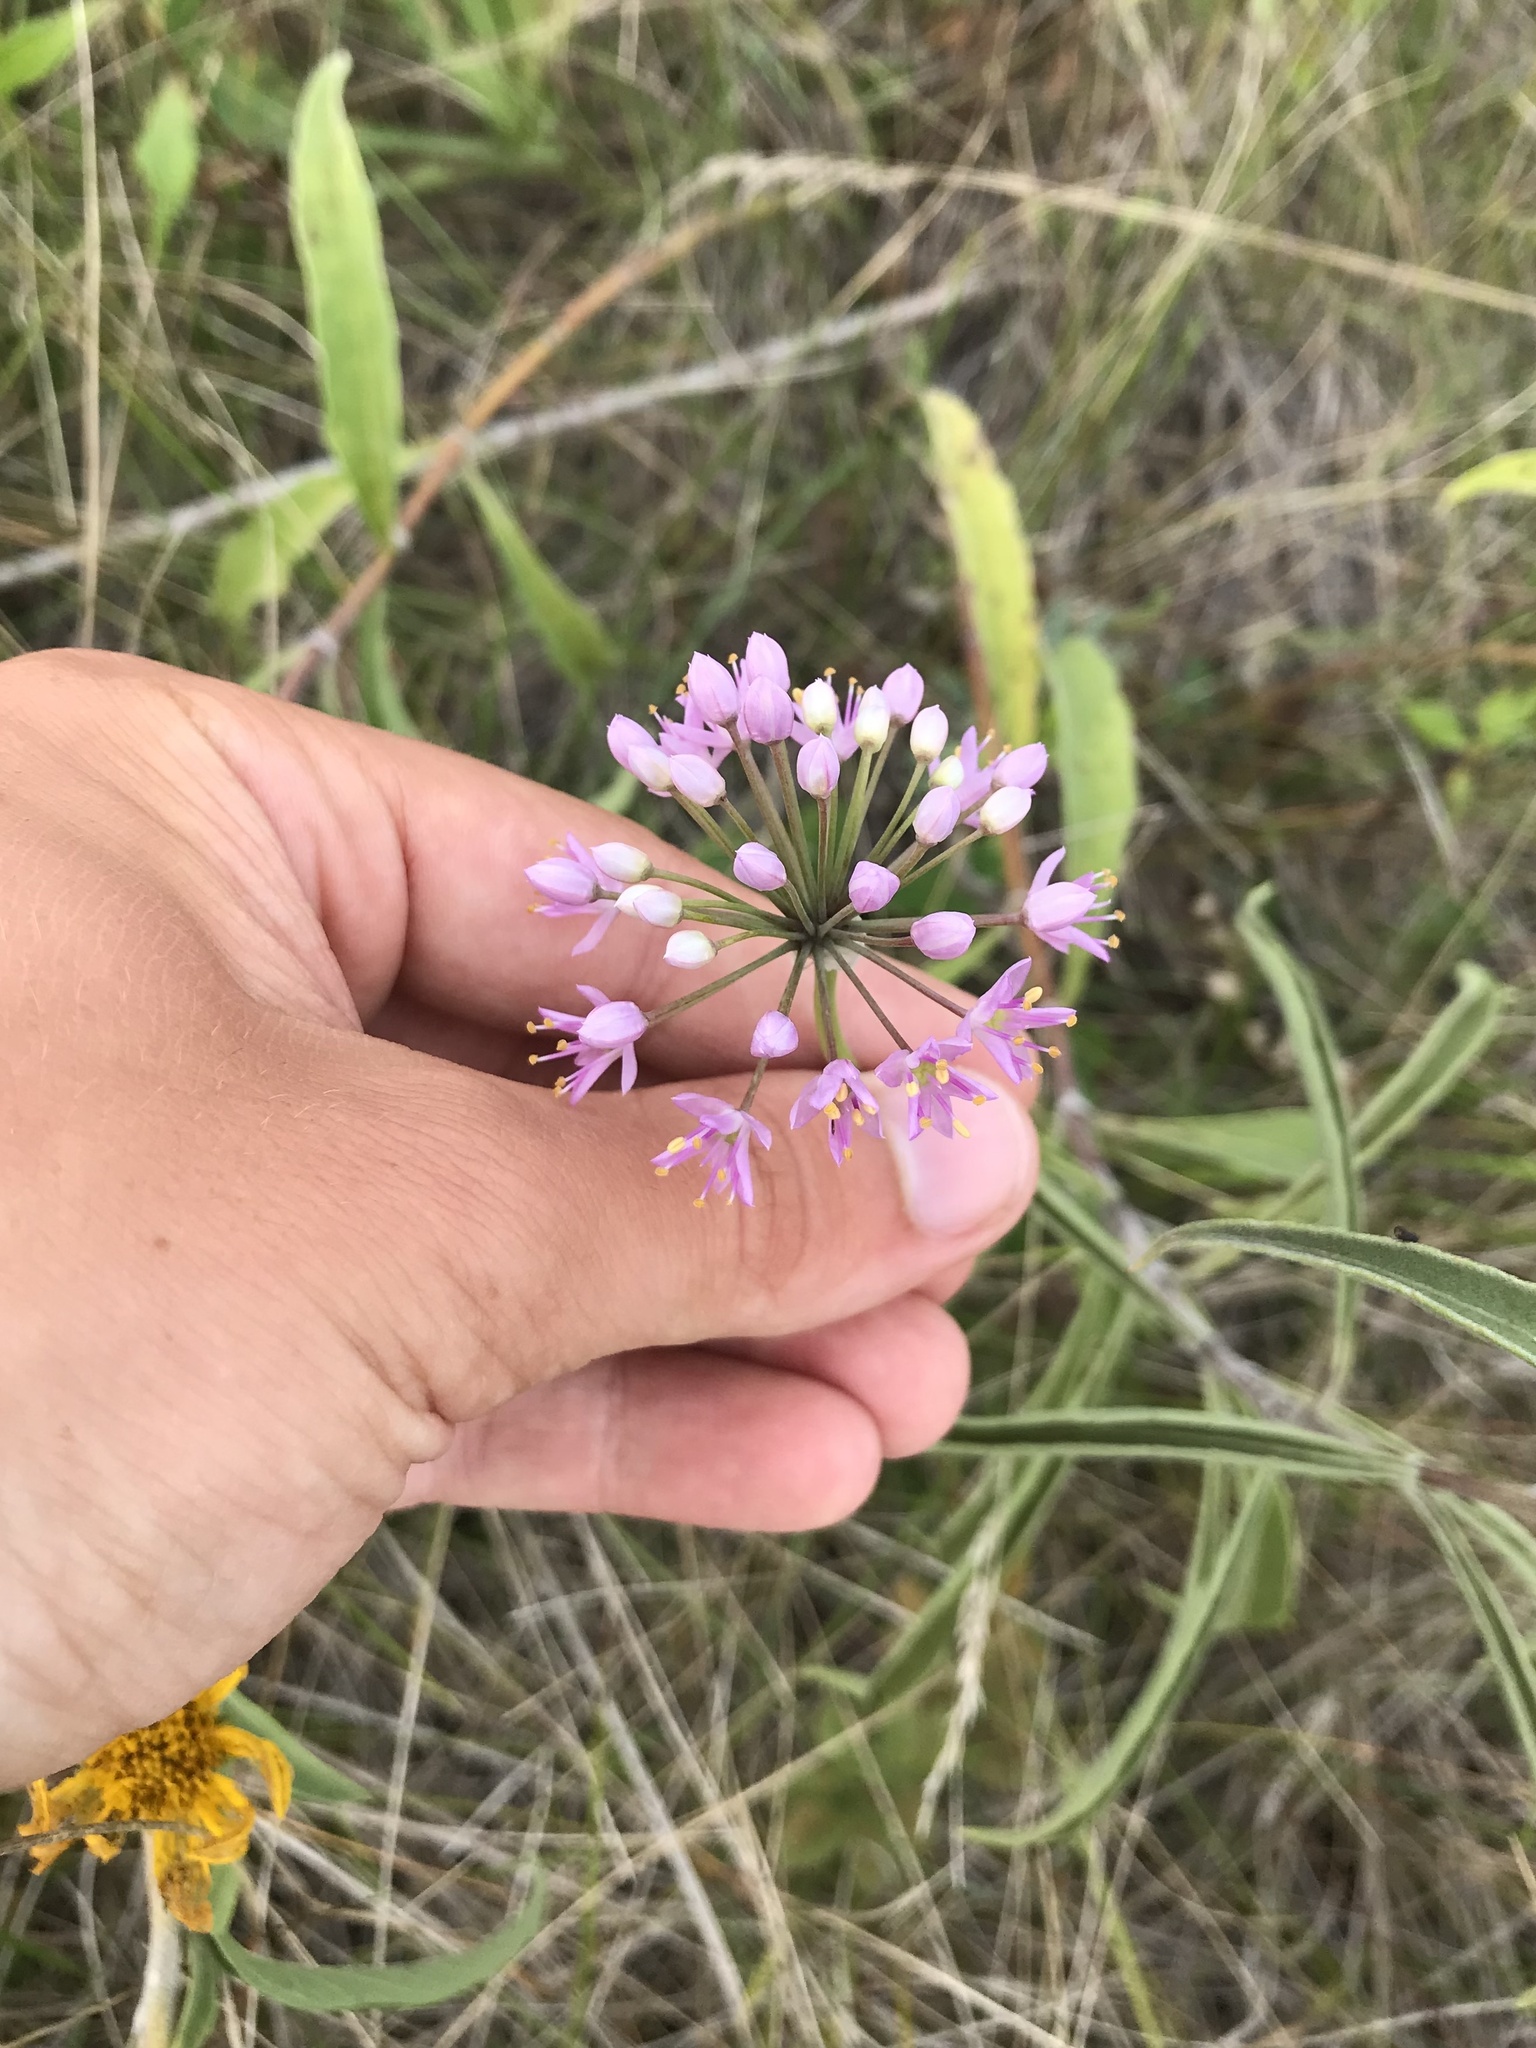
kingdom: Plantae
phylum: Tracheophyta
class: Liliopsida
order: Asparagales
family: Amaryllidaceae
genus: Allium
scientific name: Allium stellatum
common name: Autumn onion
